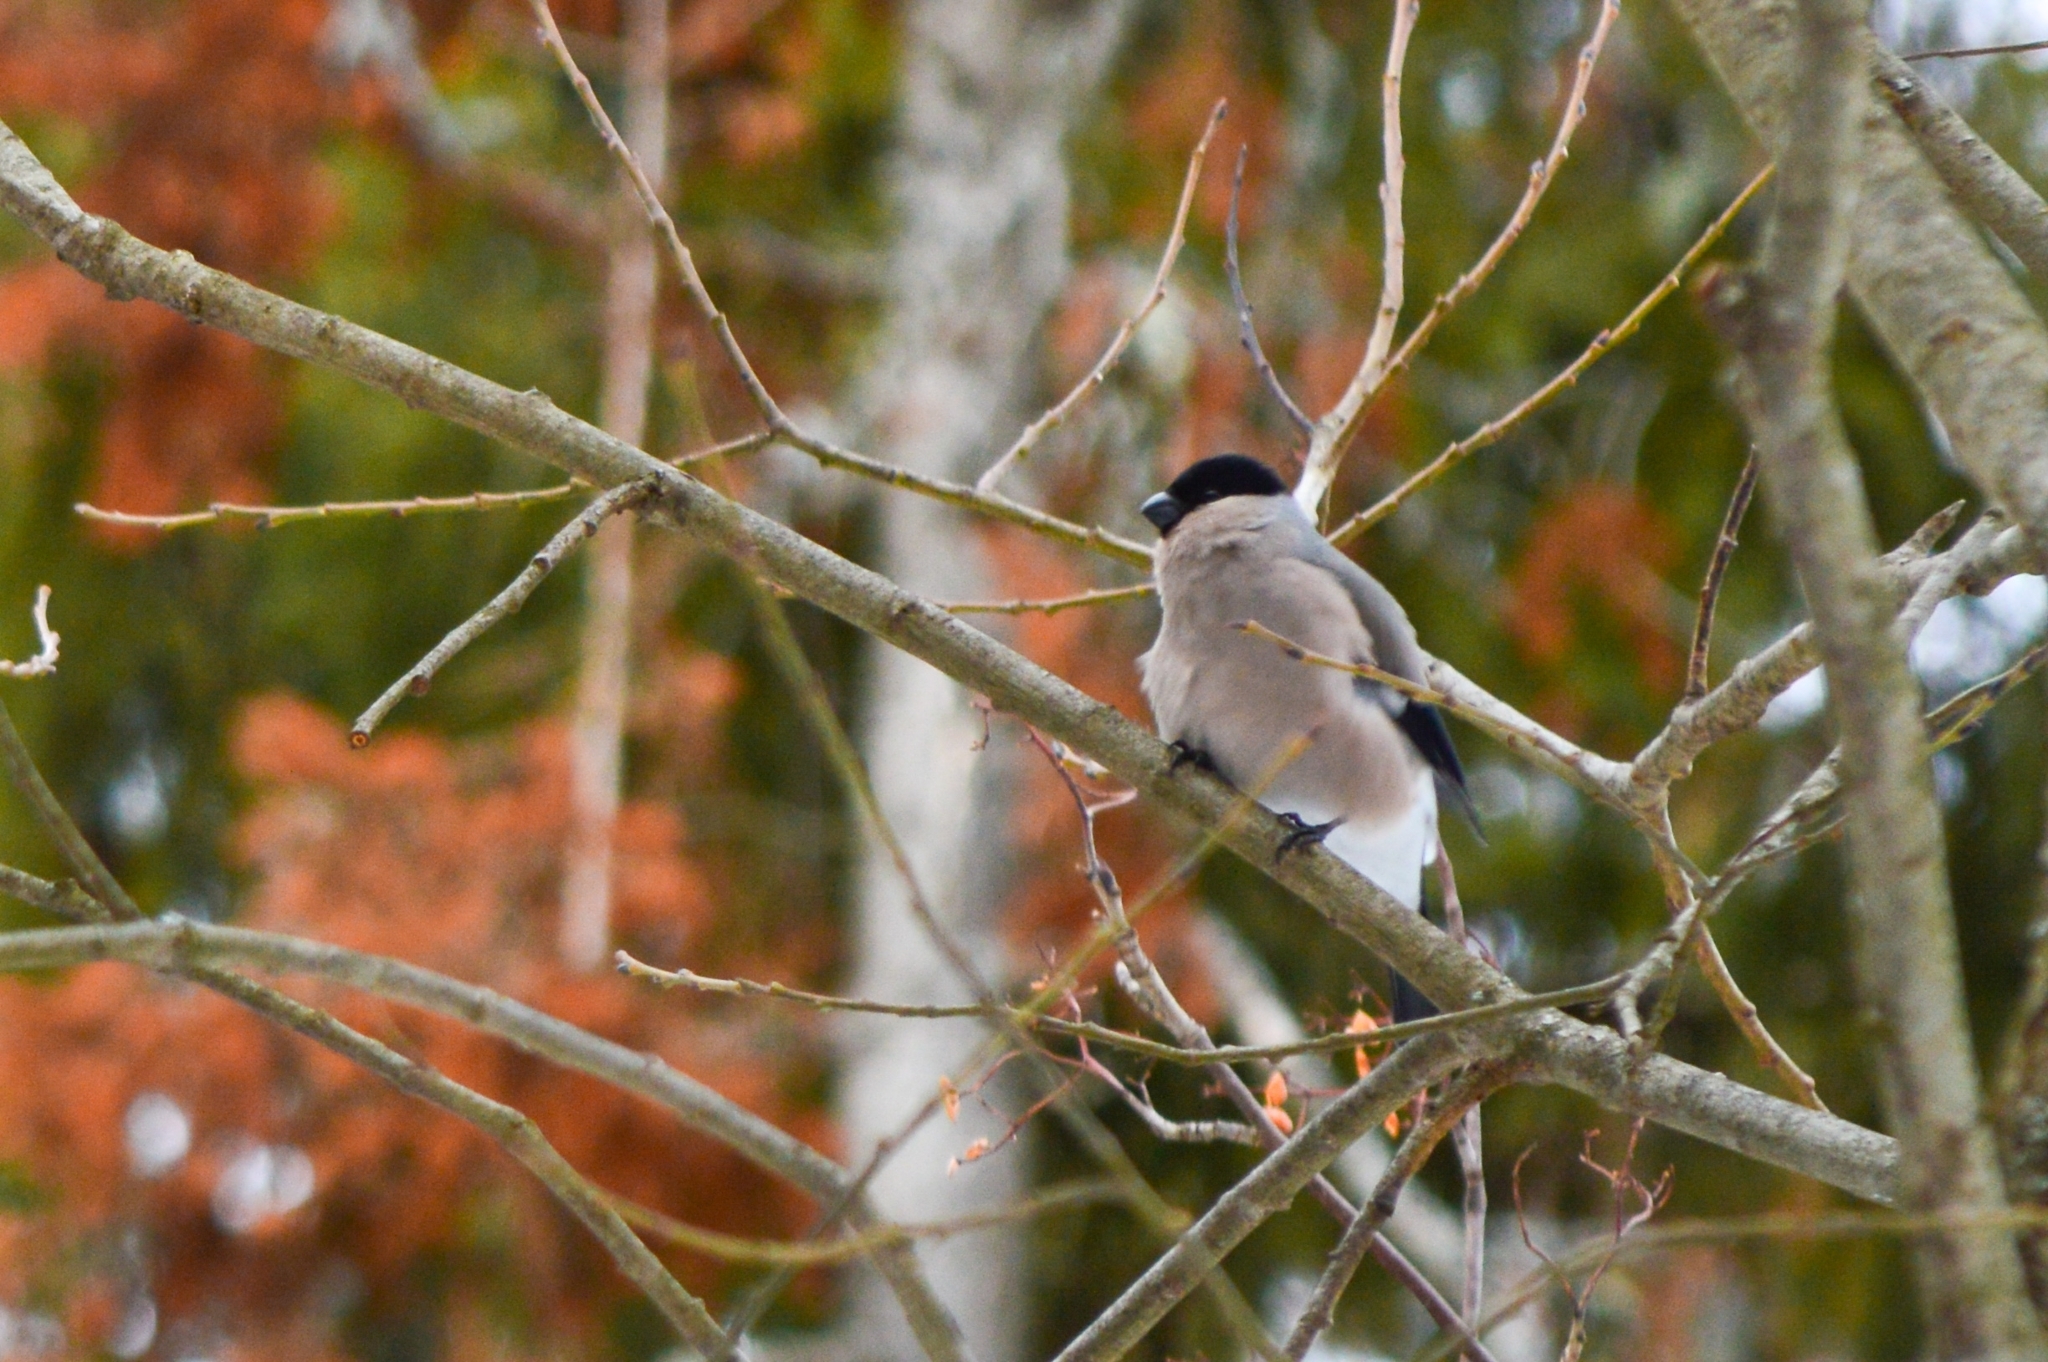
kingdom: Animalia
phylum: Chordata
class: Aves
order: Passeriformes
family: Fringillidae
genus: Pyrrhula
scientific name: Pyrrhula pyrrhula
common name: Eurasian bullfinch
